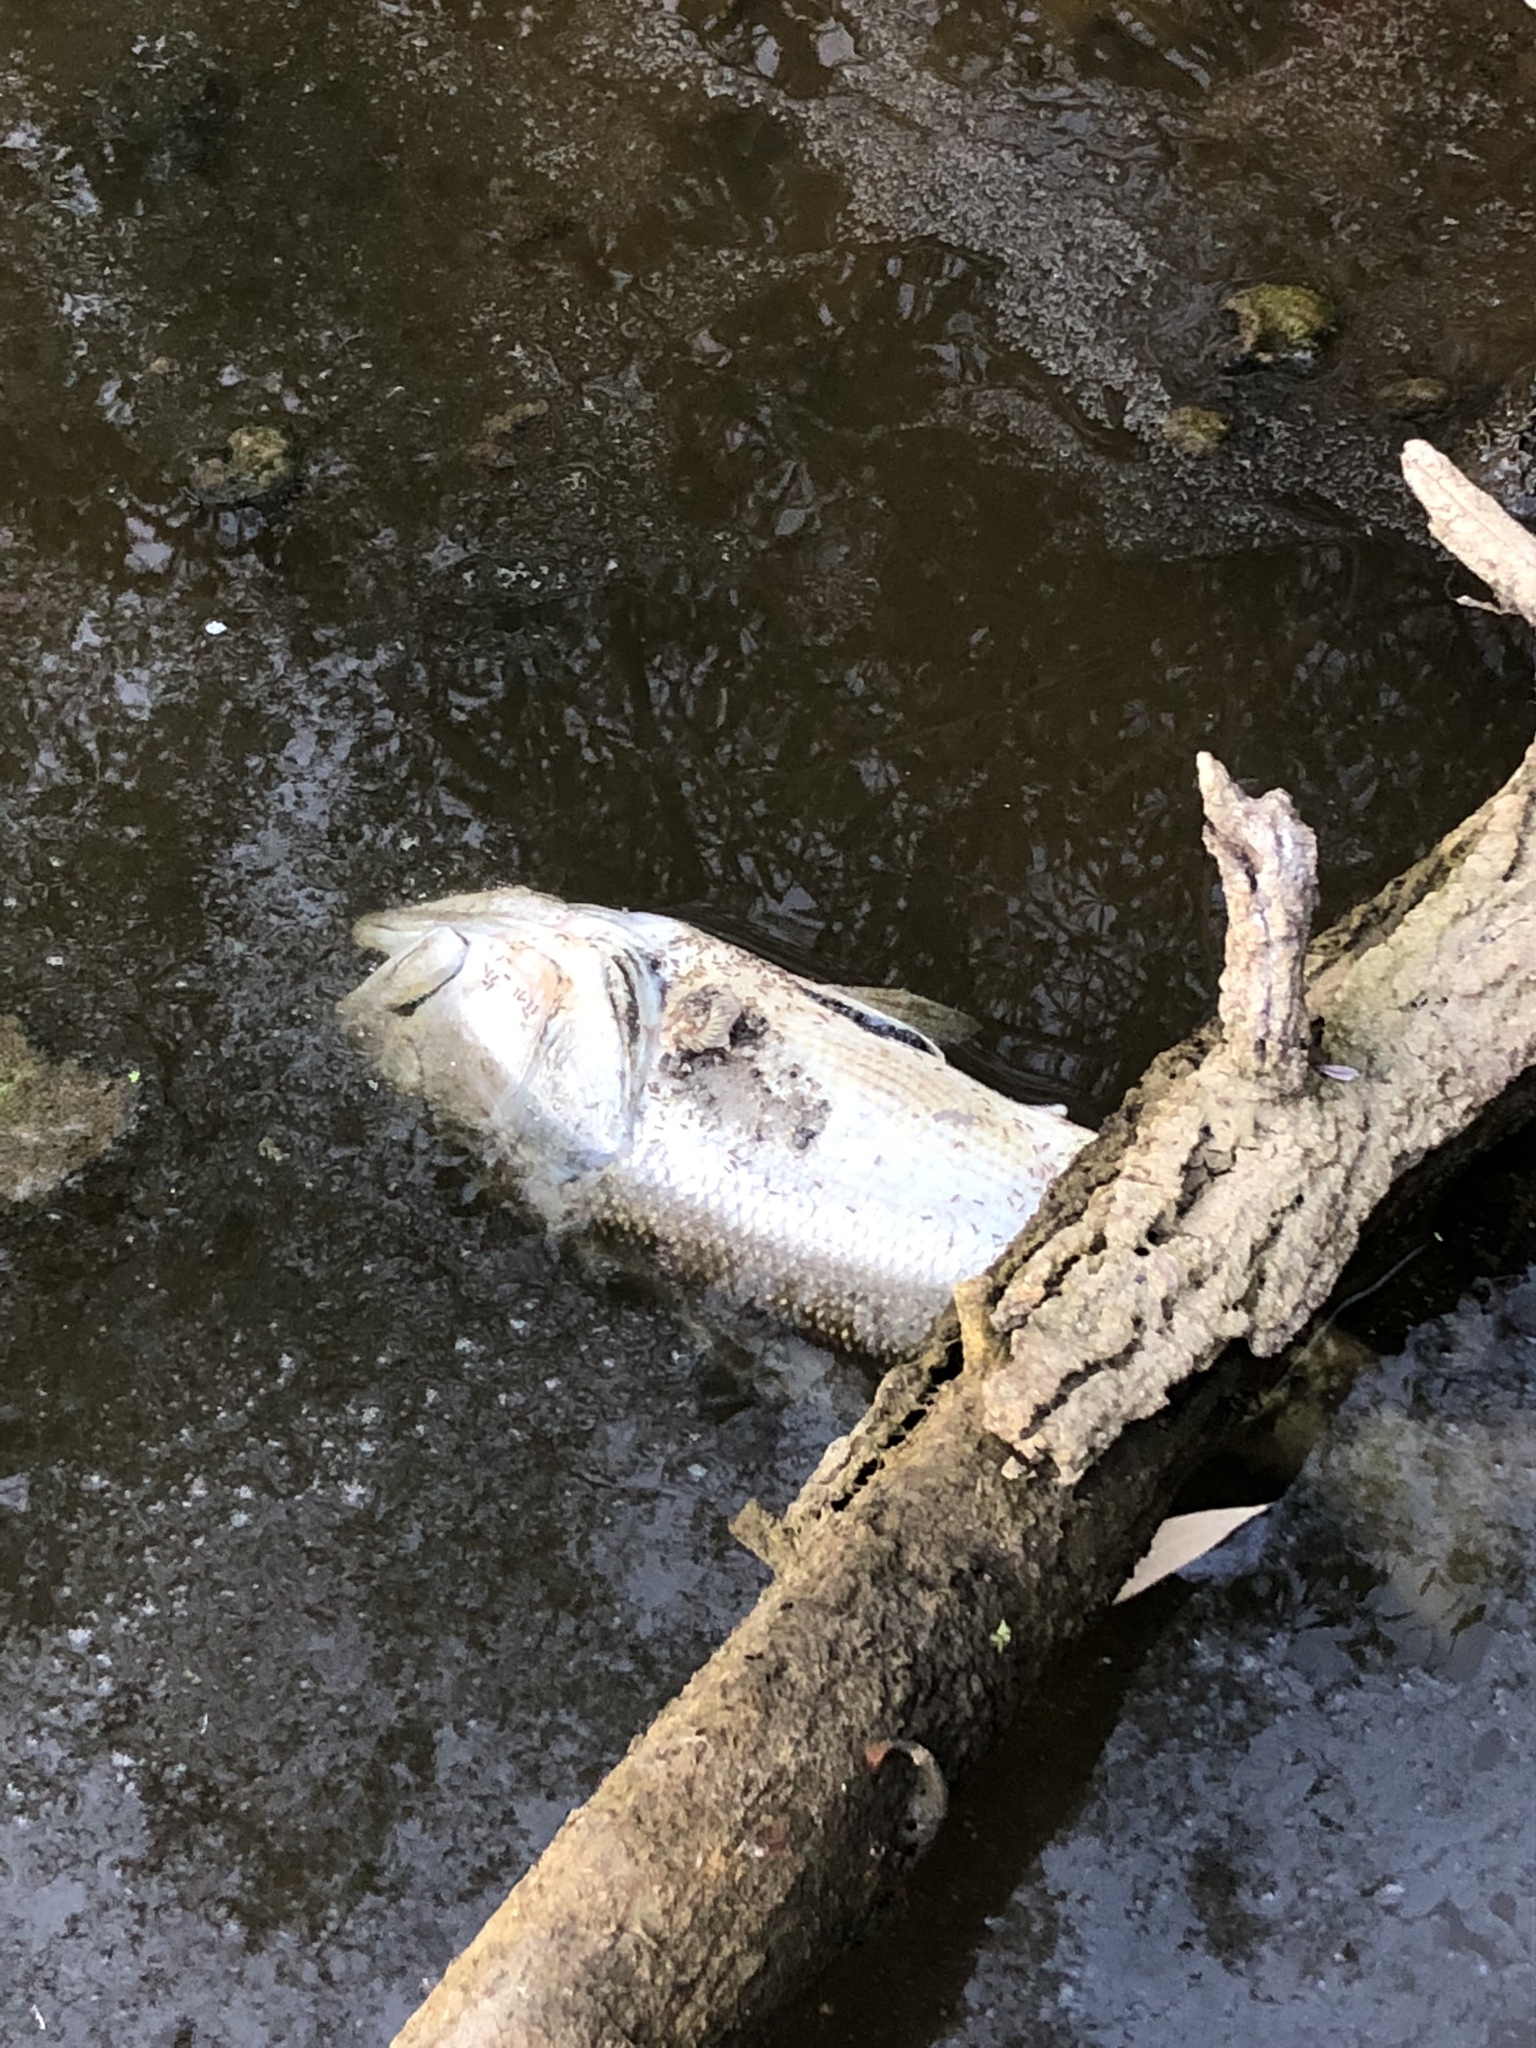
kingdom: Animalia
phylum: Chordata
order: Perciformes
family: Centrarchidae
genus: Micropterus
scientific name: Micropterus
